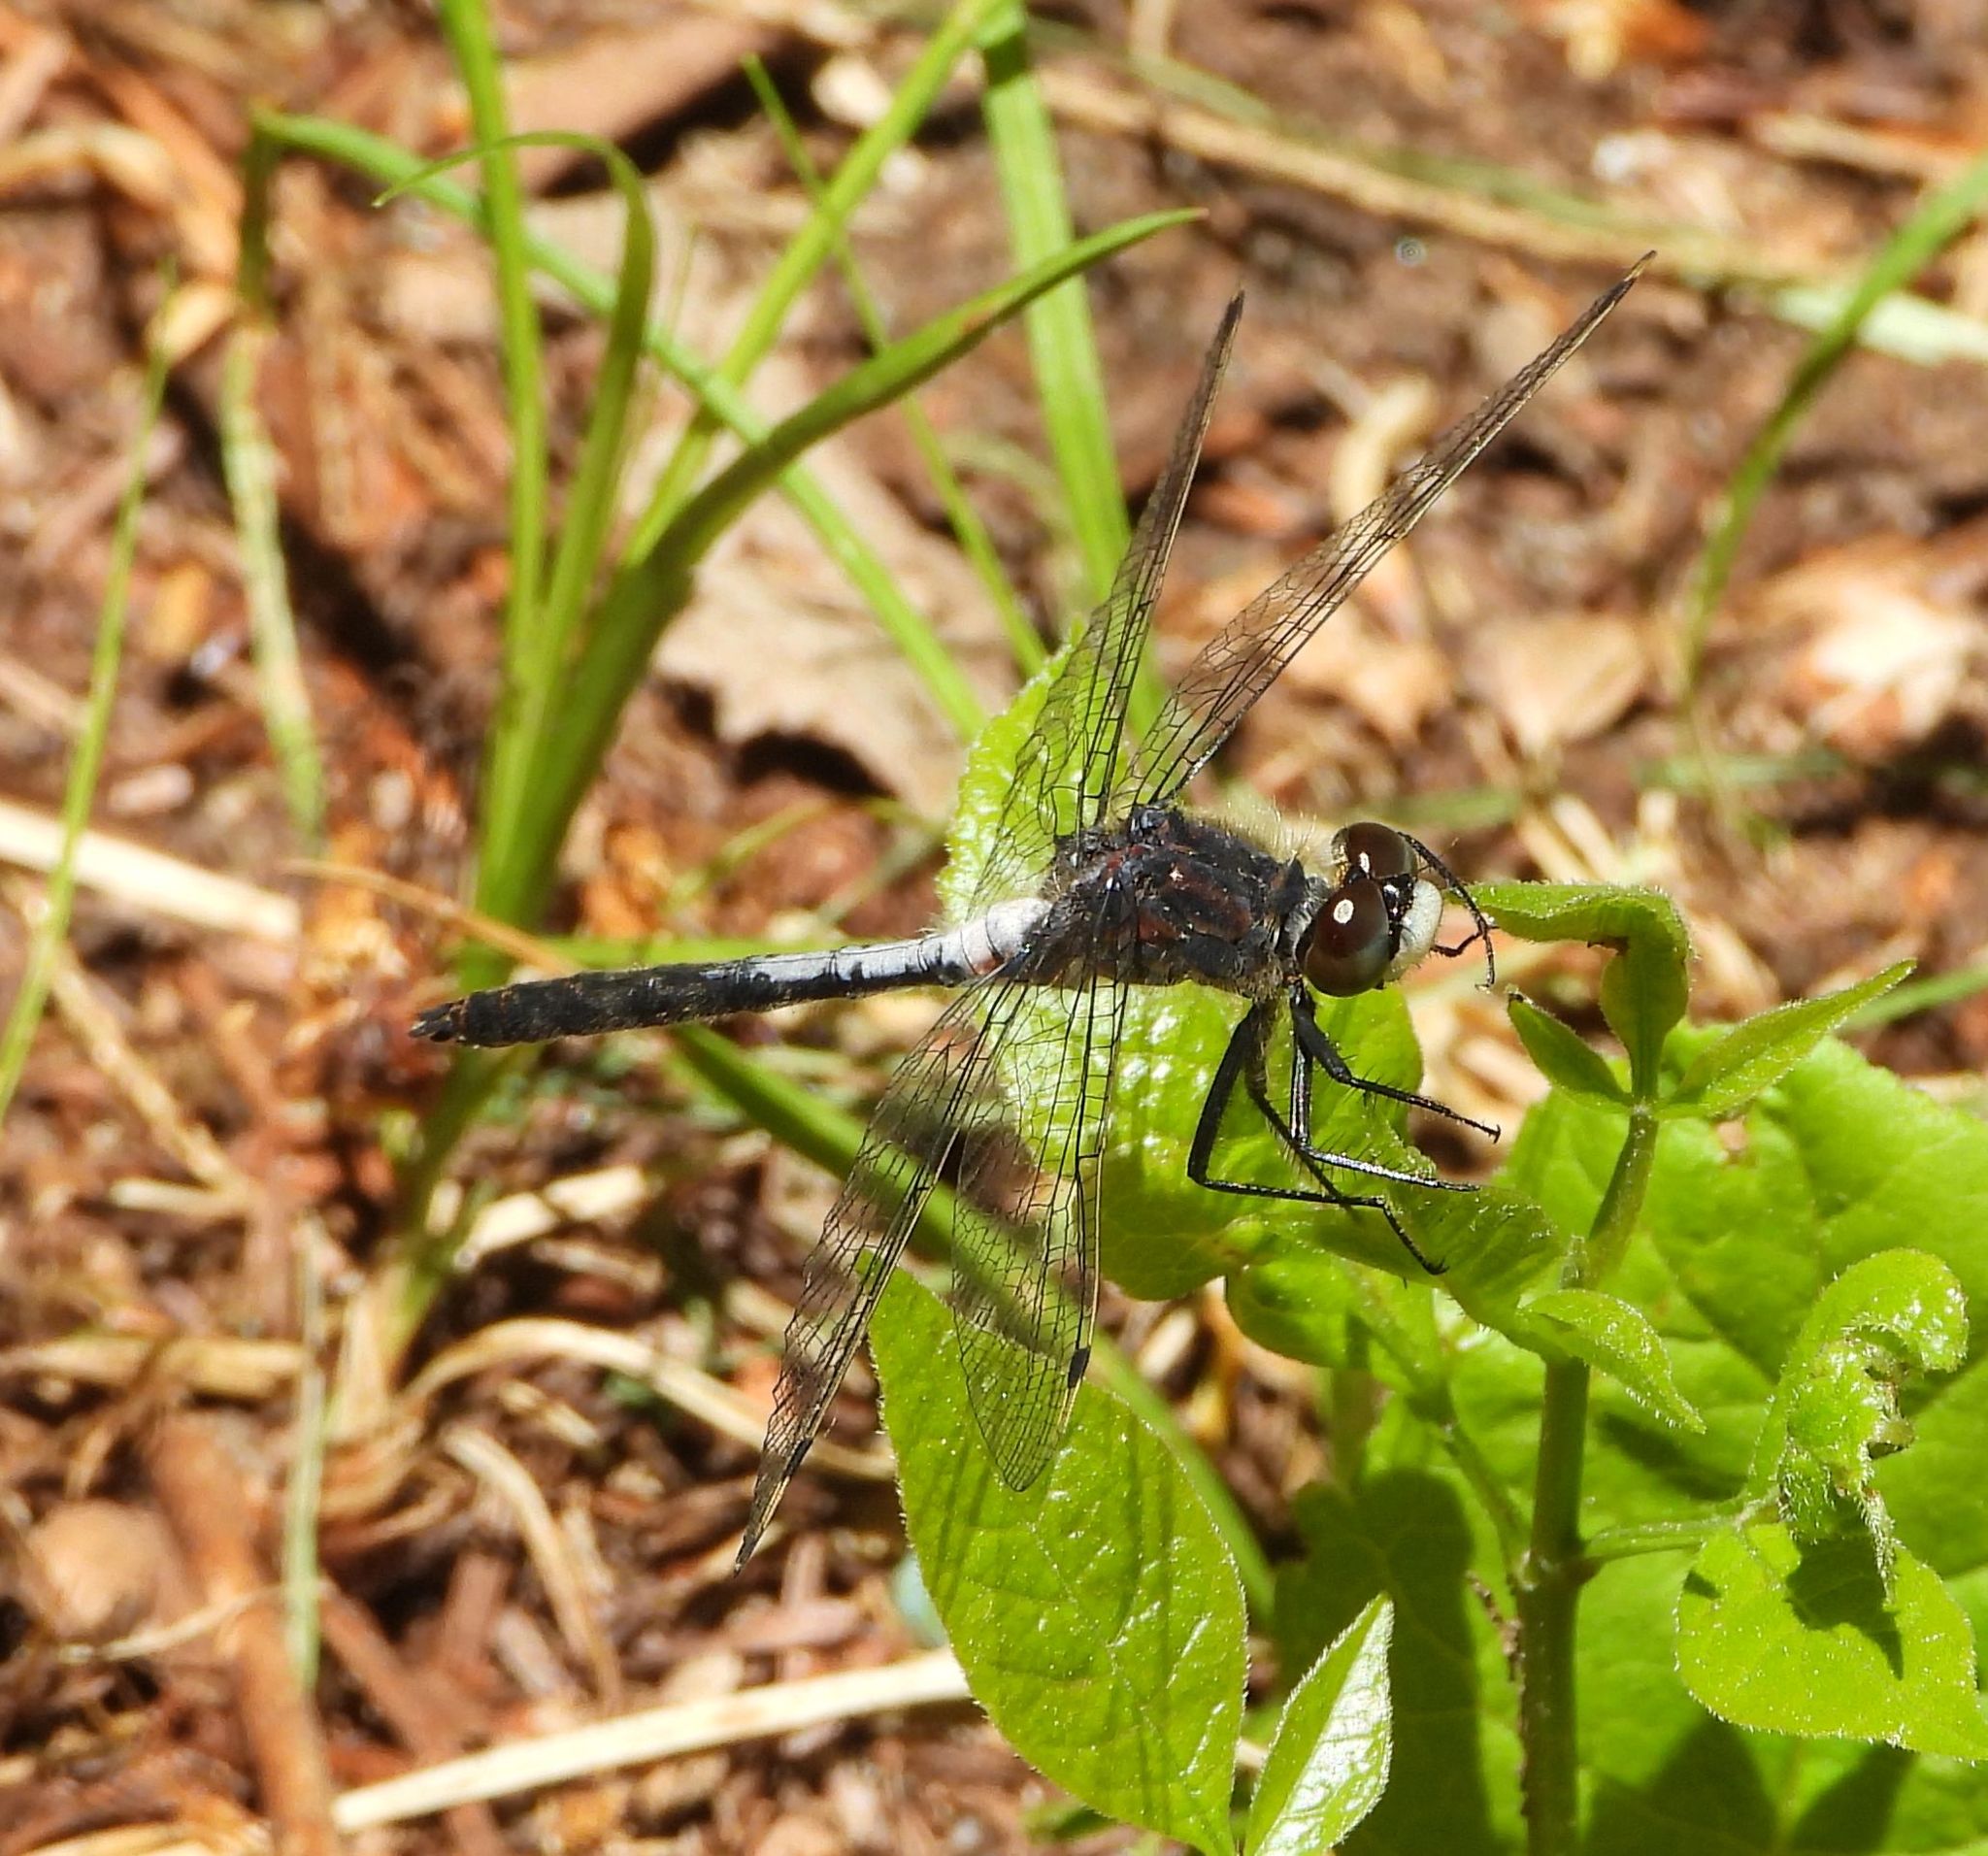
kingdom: Animalia
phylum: Arthropoda
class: Insecta
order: Odonata
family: Libellulidae
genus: Leucorrhinia
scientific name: Leucorrhinia proxima
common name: Belted whiteface
